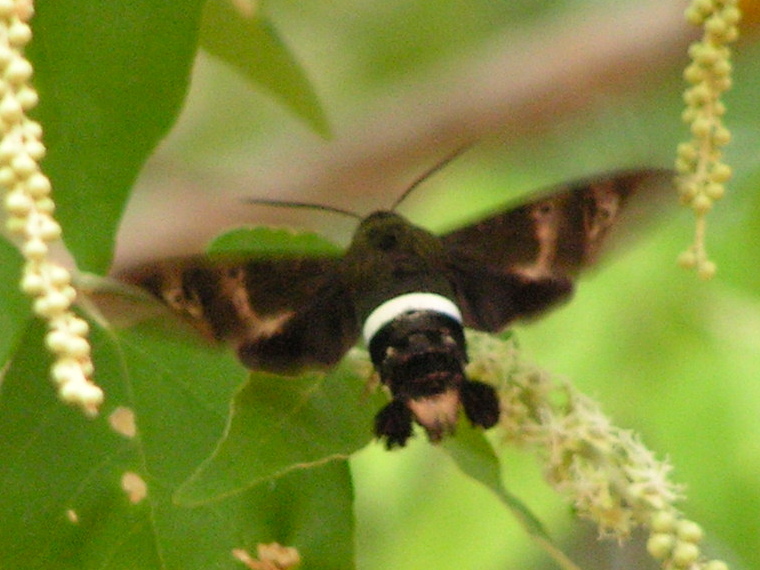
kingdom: Animalia
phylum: Arthropoda
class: Insecta
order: Lepidoptera
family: Sphingidae
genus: Aellopos
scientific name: Aellopos clavipes
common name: Clavipes sphinx
